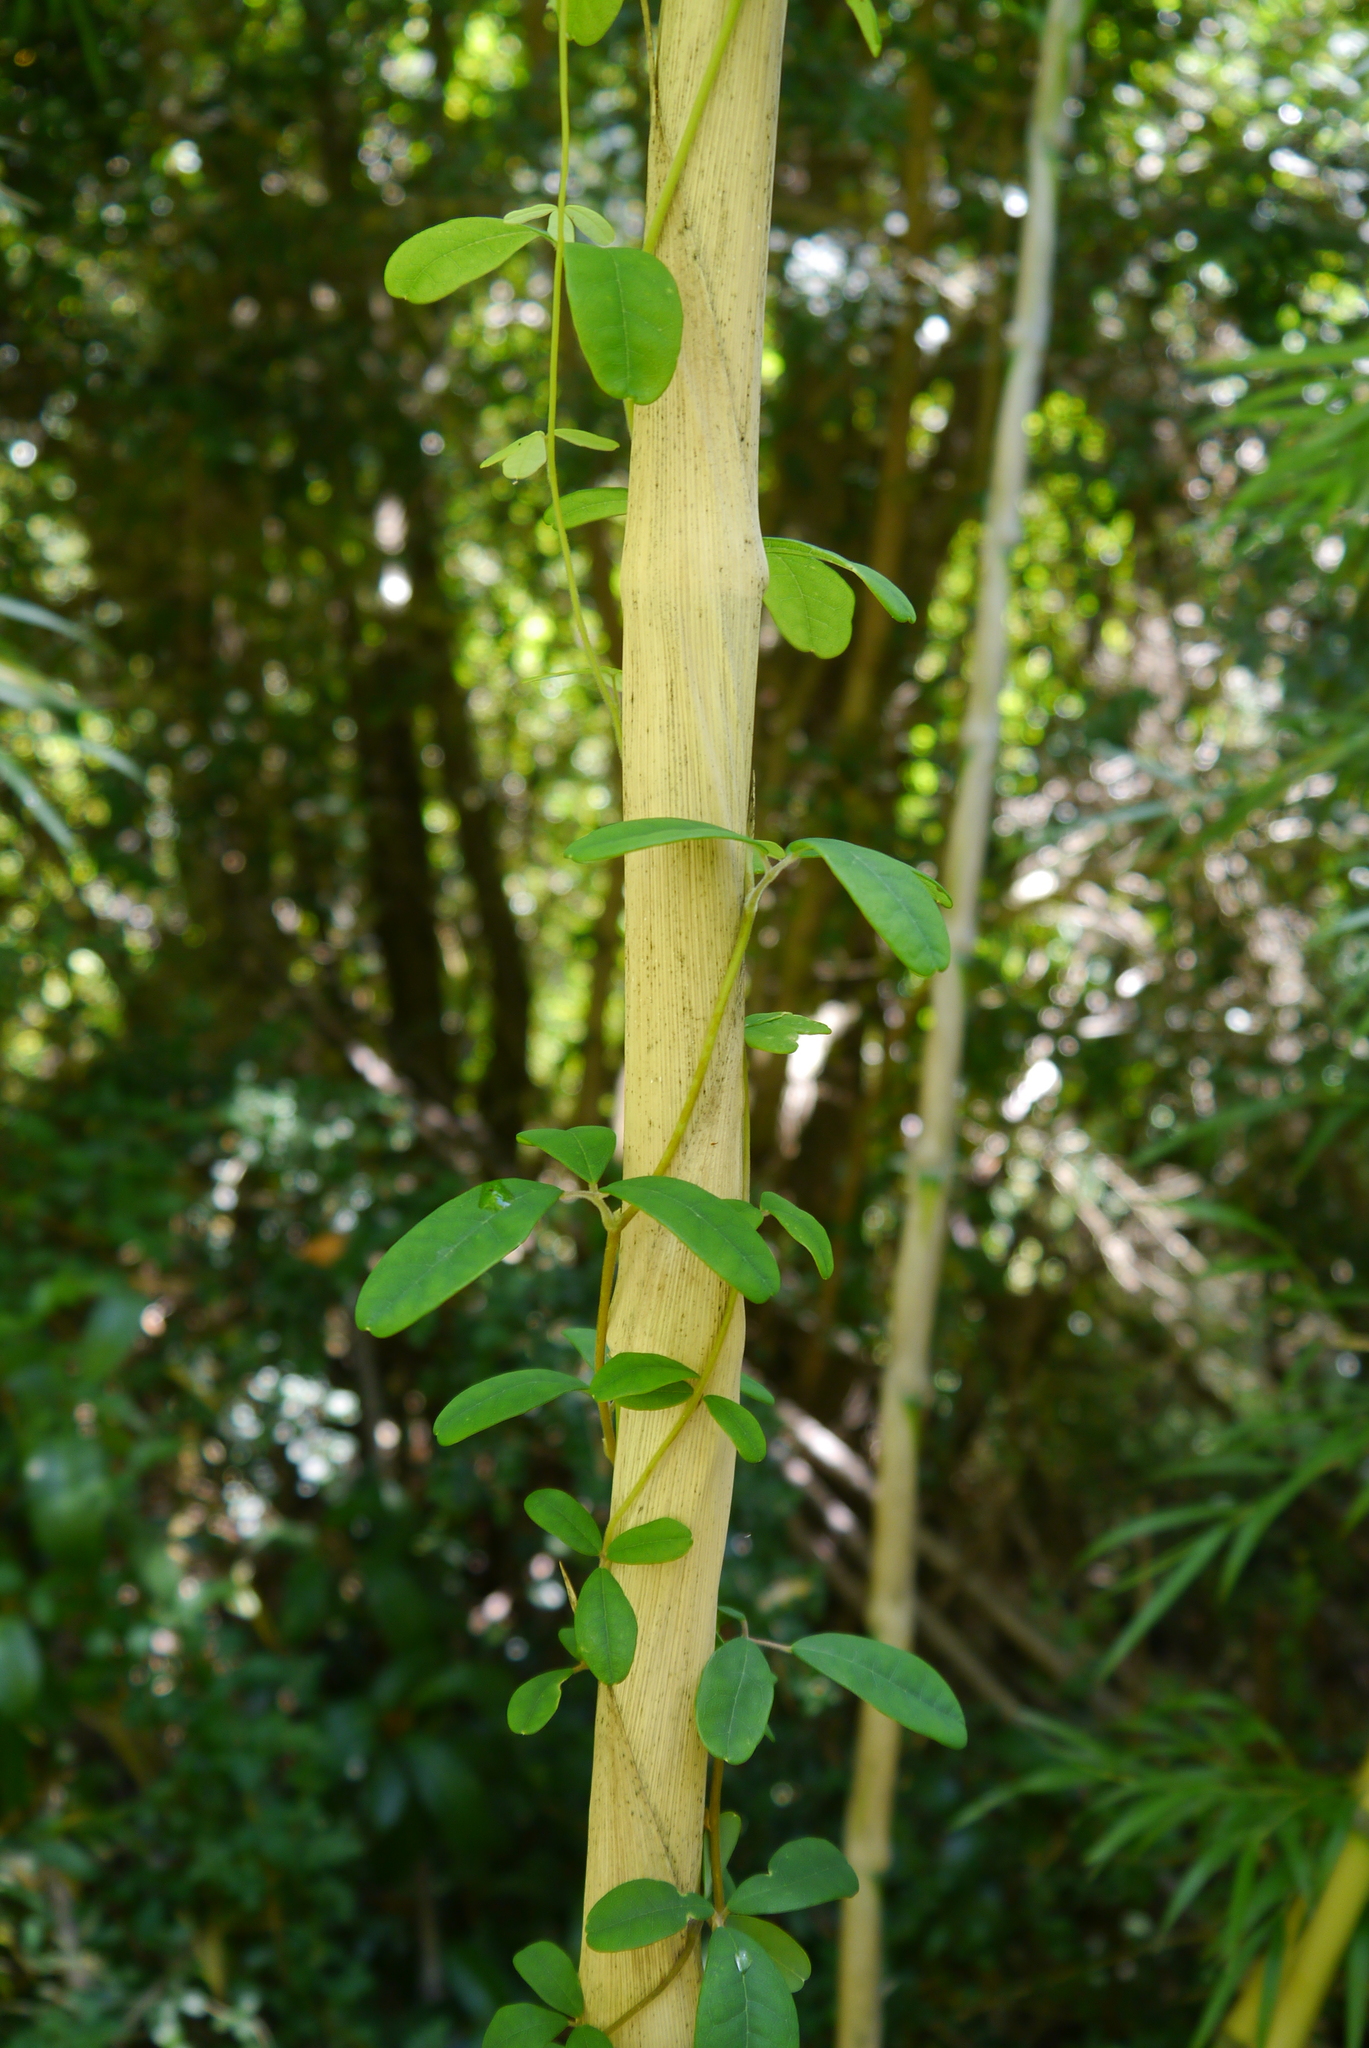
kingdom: Plantae
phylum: Tracheophyta
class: Magnoliopsida
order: Ranunculales
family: Lardizabalaceae
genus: Boquila
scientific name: Boquila trifoliolata
